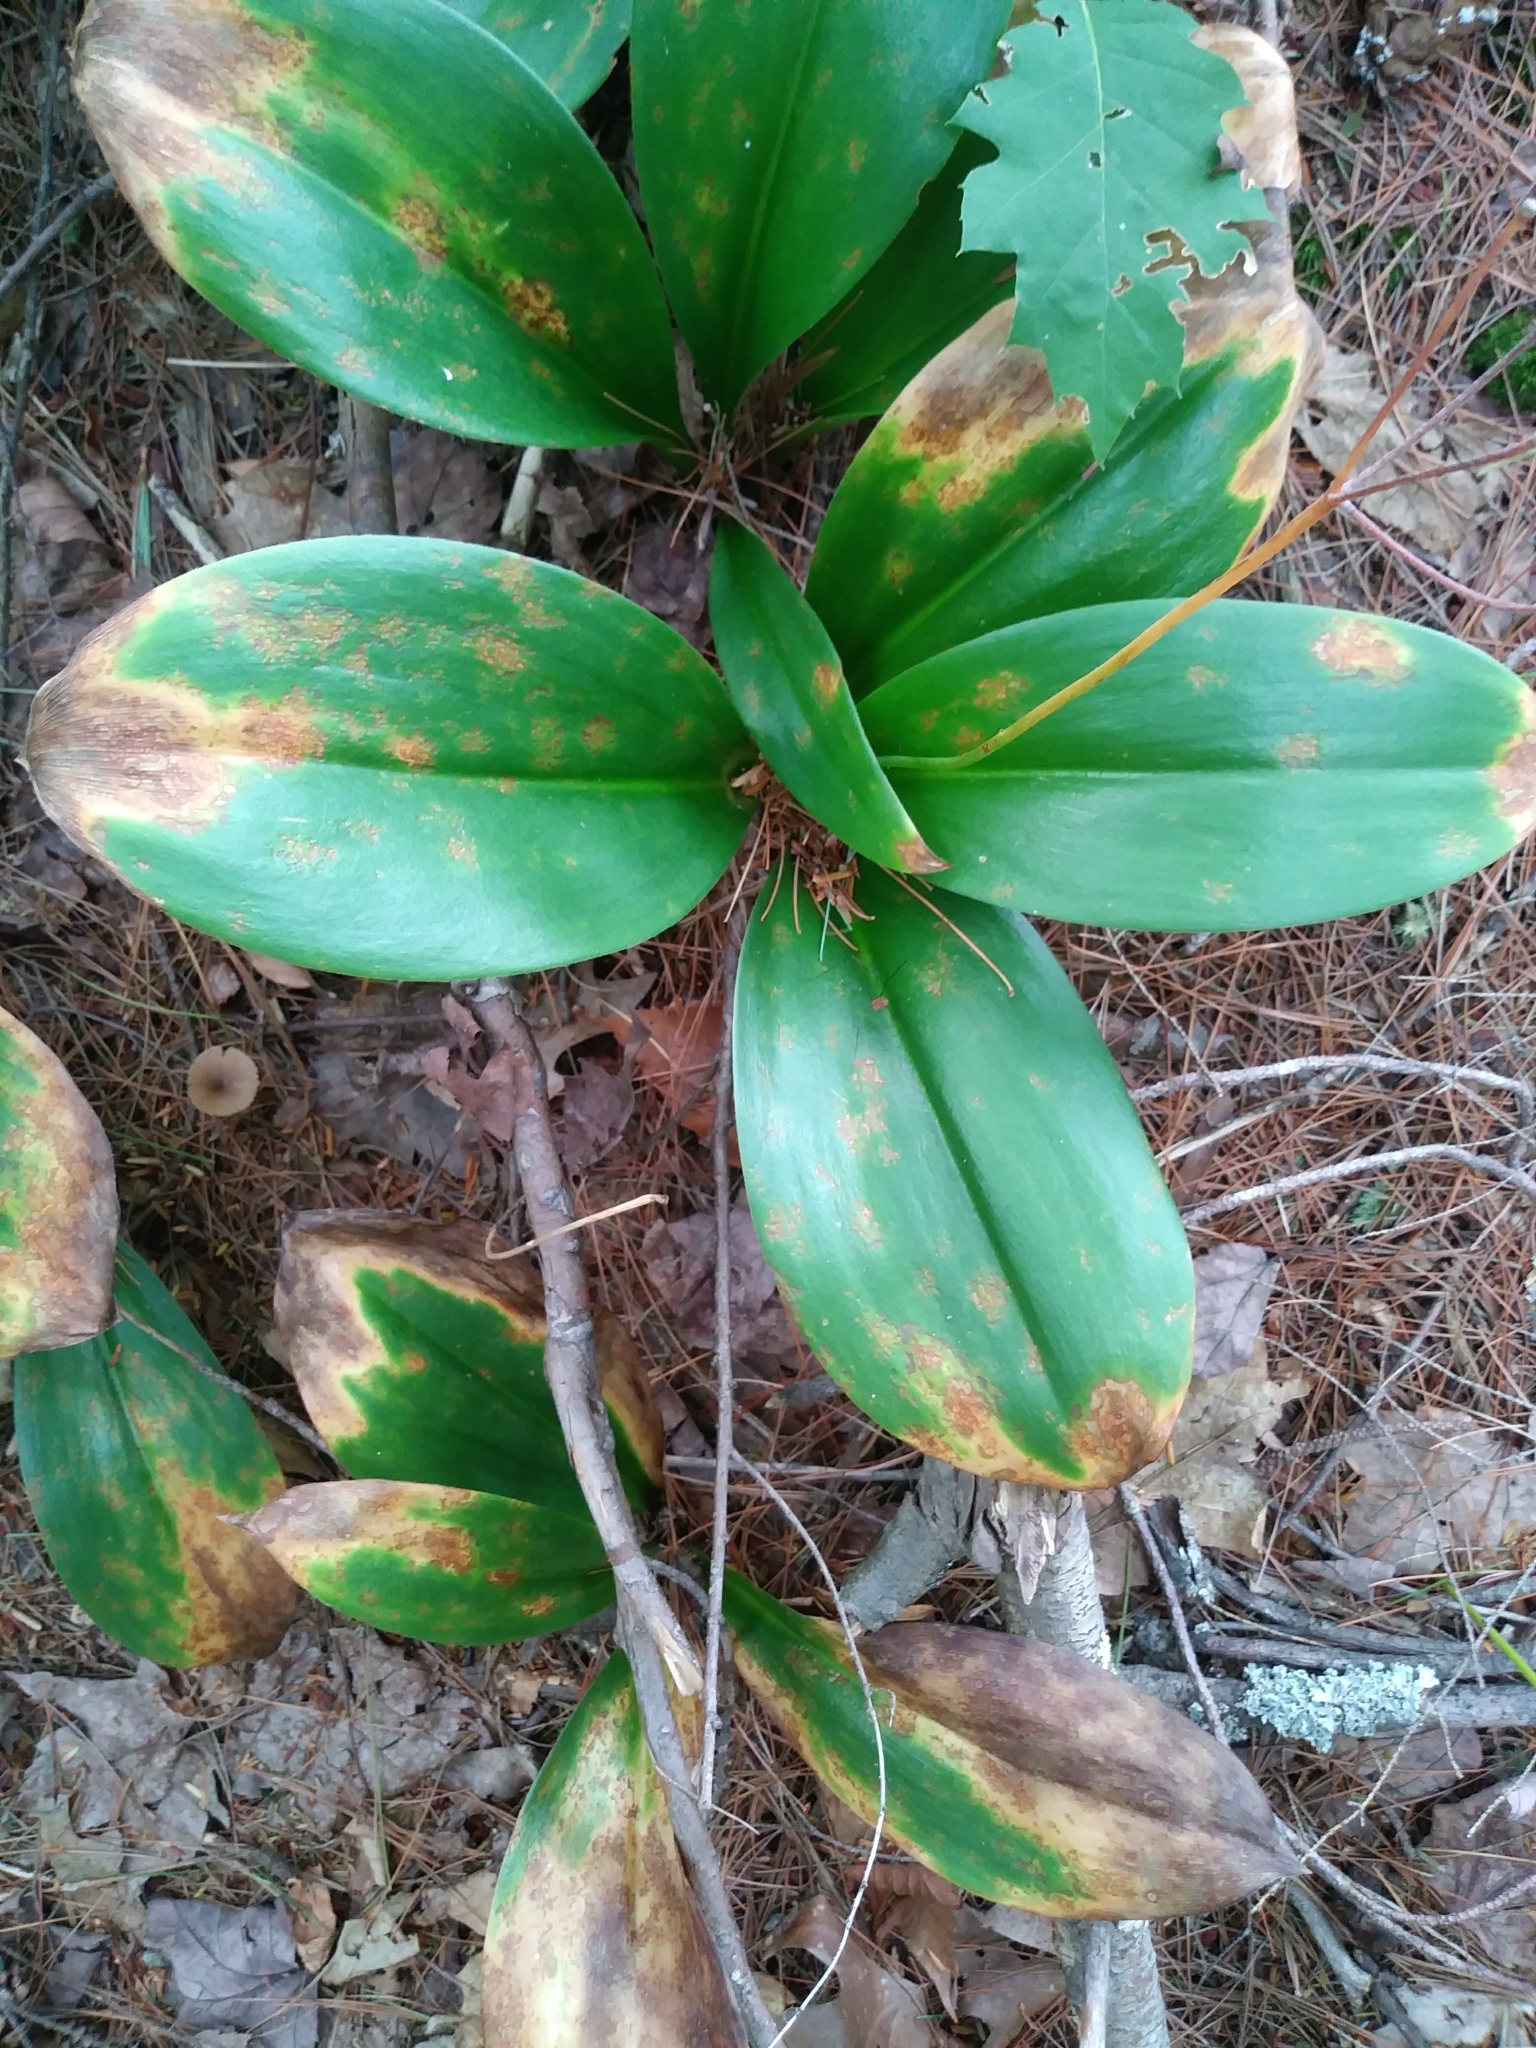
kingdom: Plantae
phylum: Tracheophyta
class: Liliopsida
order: Liliales
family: Liliaceae
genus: Clintonia
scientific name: Clintonia borealis
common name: Yellow clintonia
